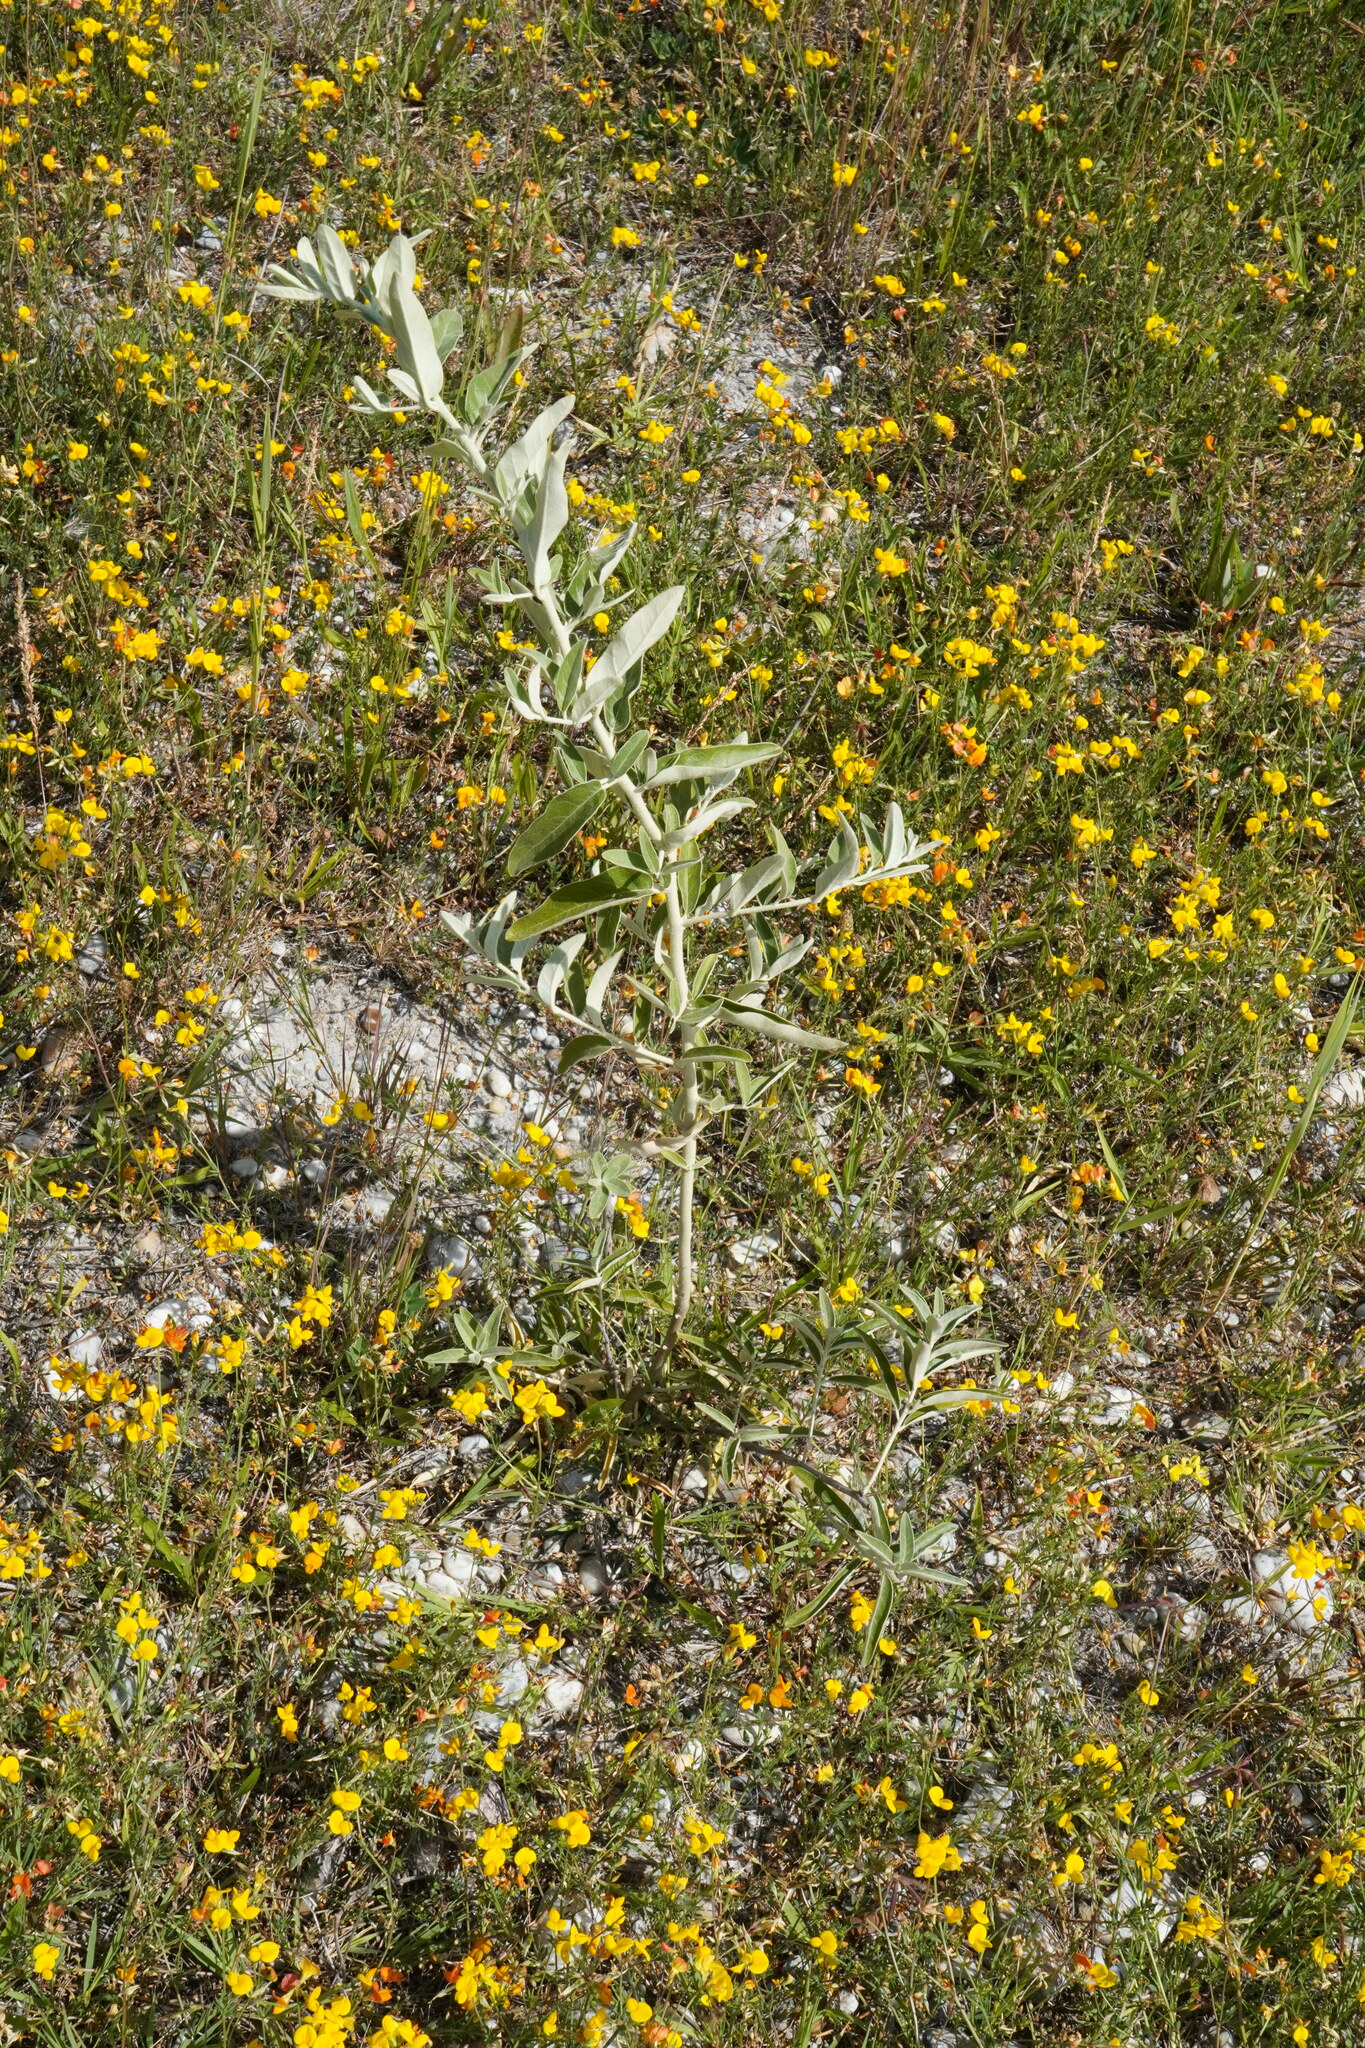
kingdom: Plantae
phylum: Tracheophyta
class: Magnoliopsida
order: Rosales
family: Elaeagnaceae
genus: Elaeagnus
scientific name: Elaeagnus angustifolia
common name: Russian olive
